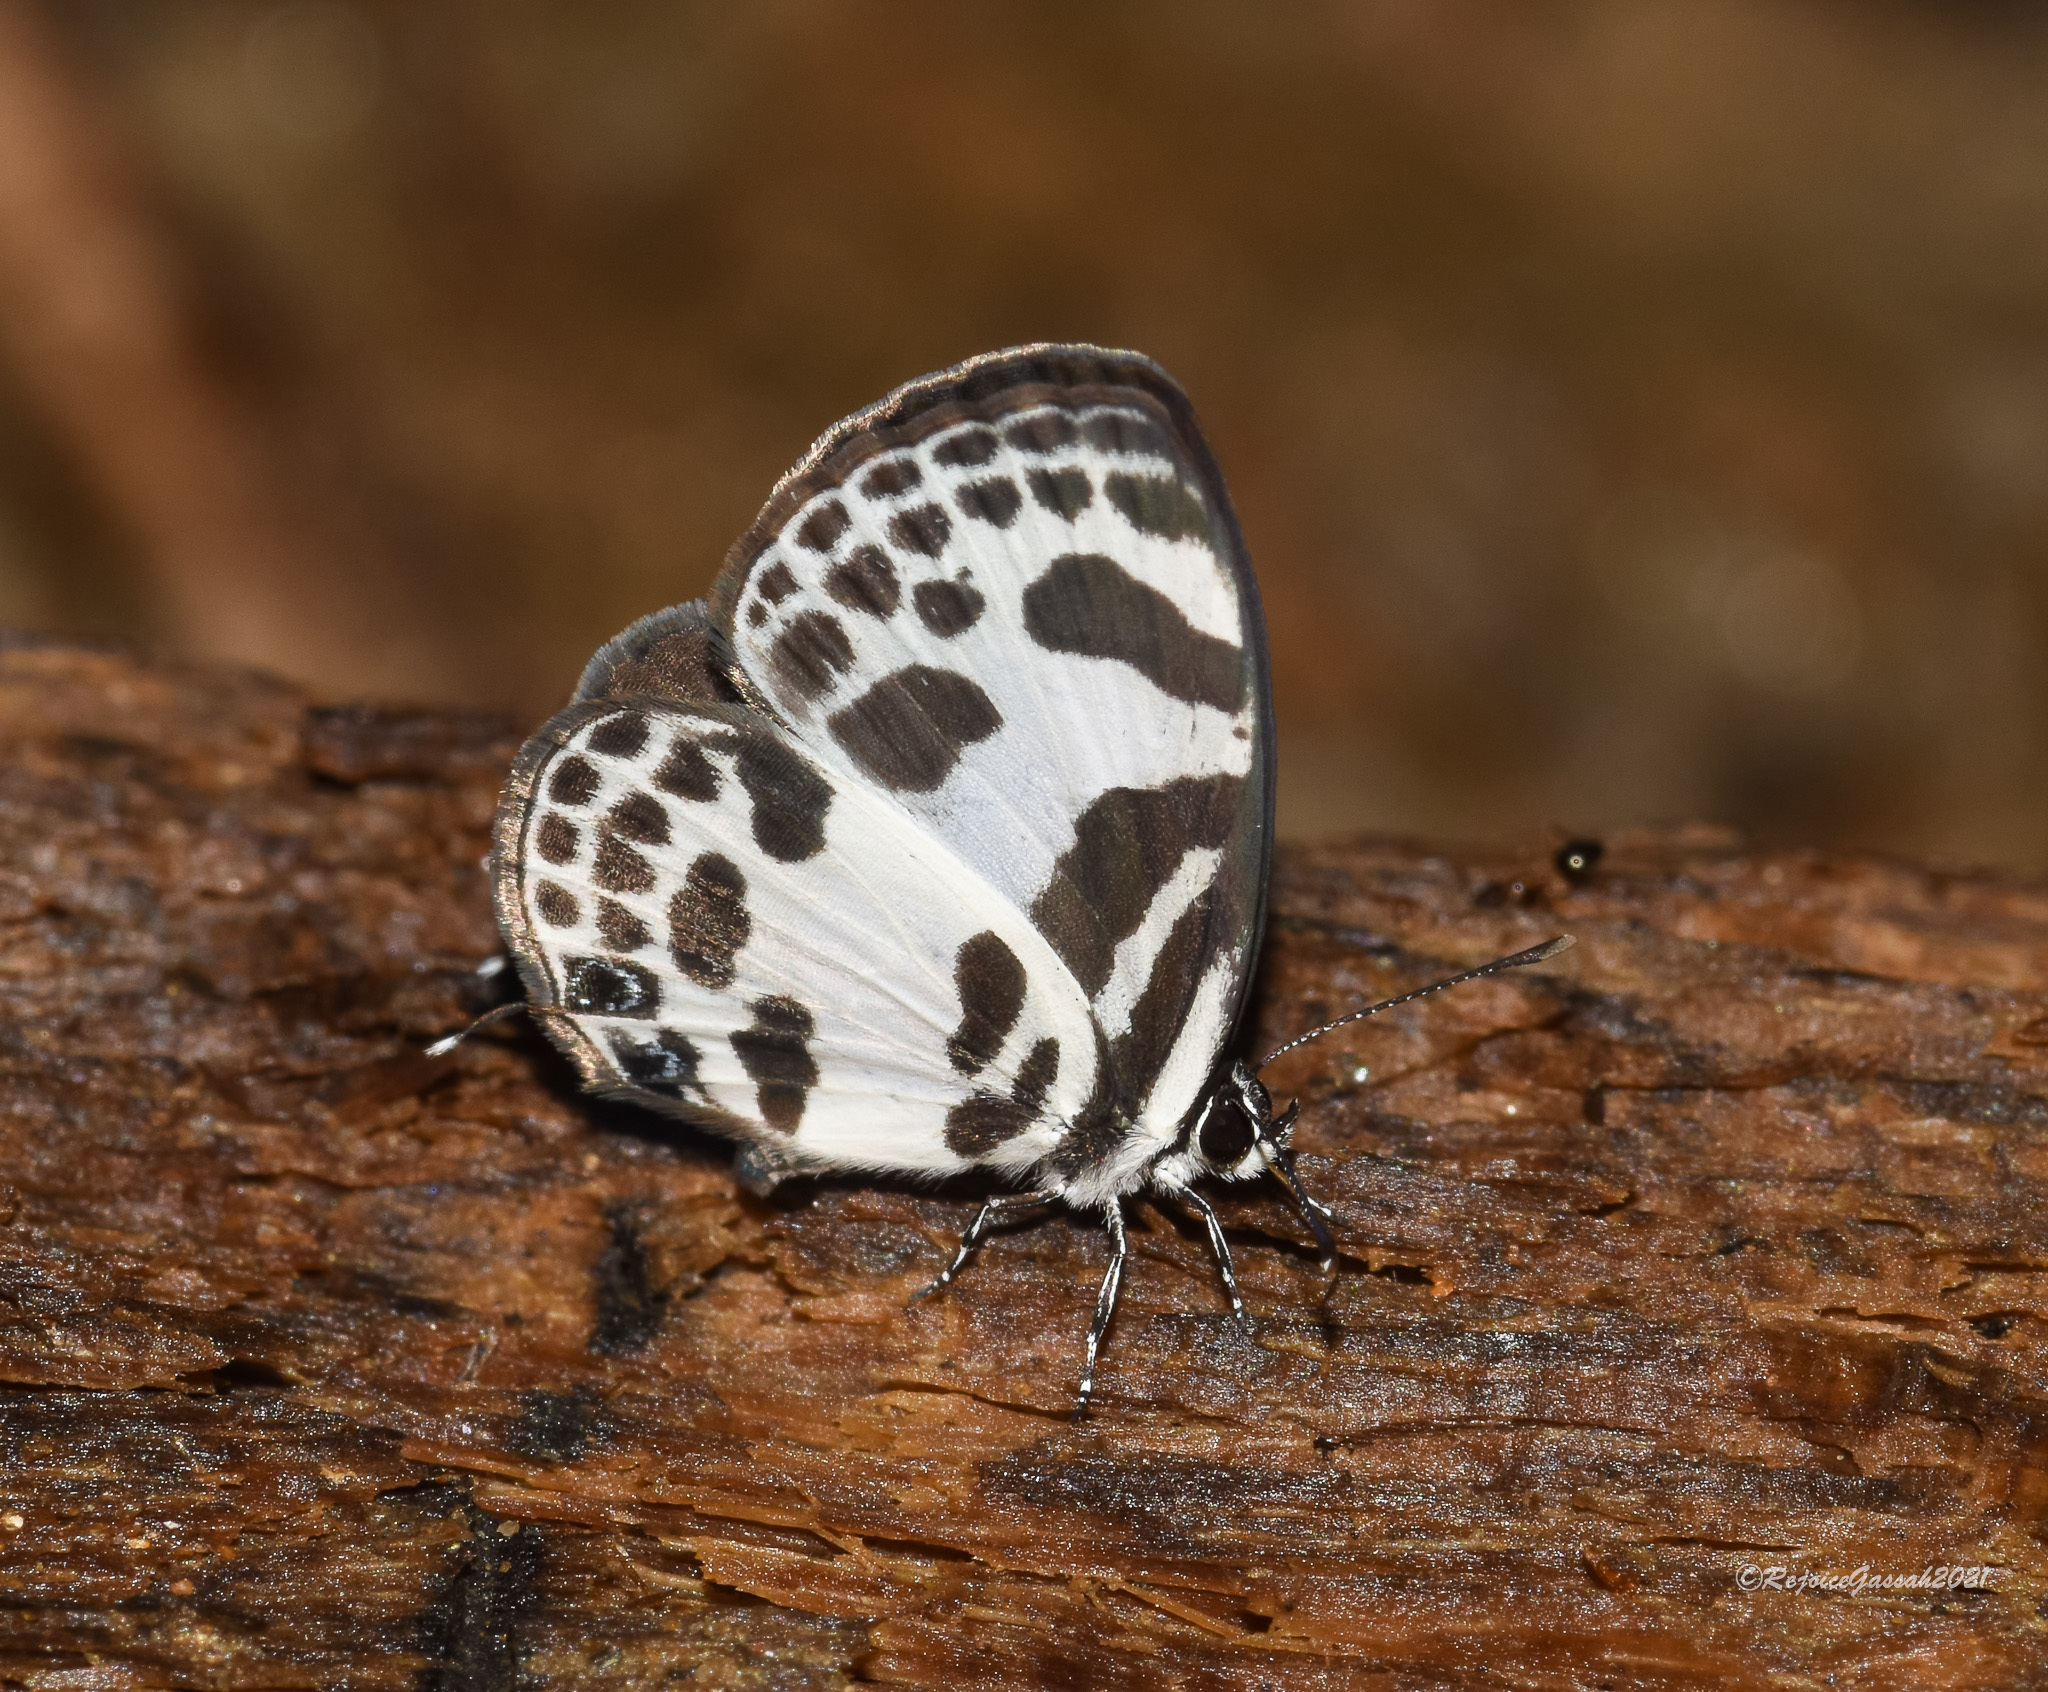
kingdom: Animalia
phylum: Arthropoda
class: Insecta
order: Lepidoptera
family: Lycaenidae
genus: Discolampa
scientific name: Discolampa ethion
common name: Banded blue pierrot
